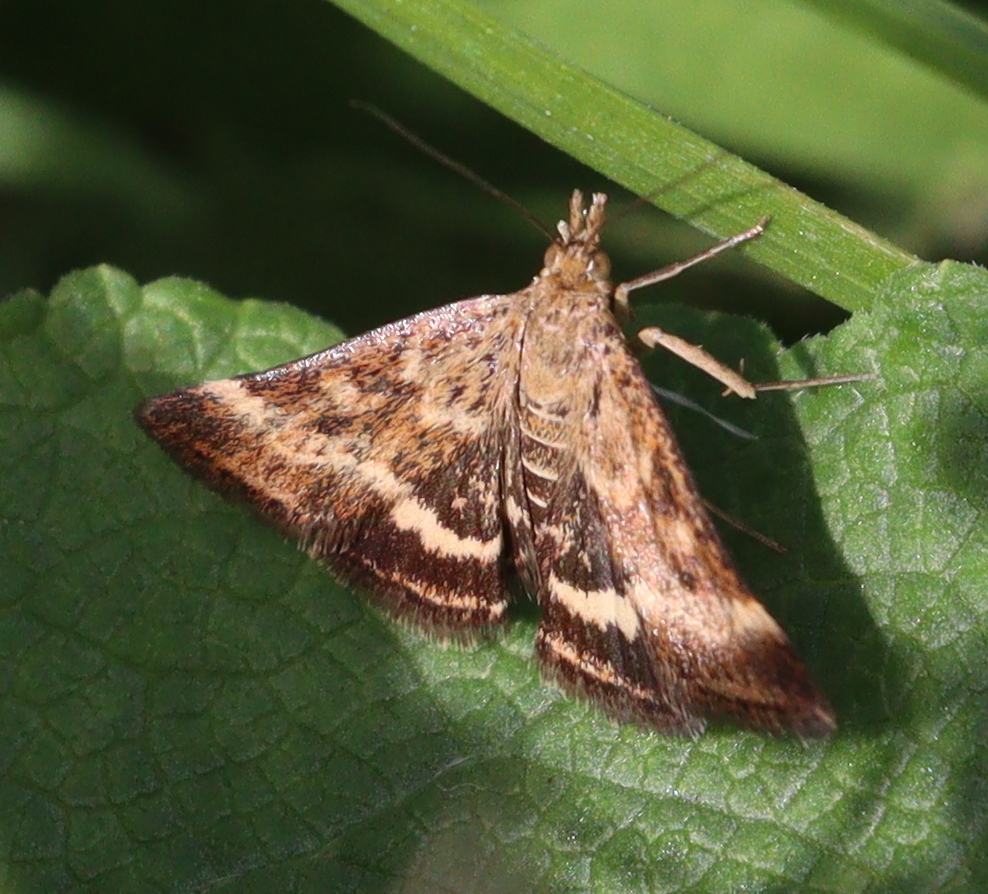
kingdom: Animalia
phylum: Arthropoda
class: Insecta
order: Lepidoptera
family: Crambidae
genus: Pyrausta
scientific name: Pyrausta despicata
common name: Straw-barred pearl
